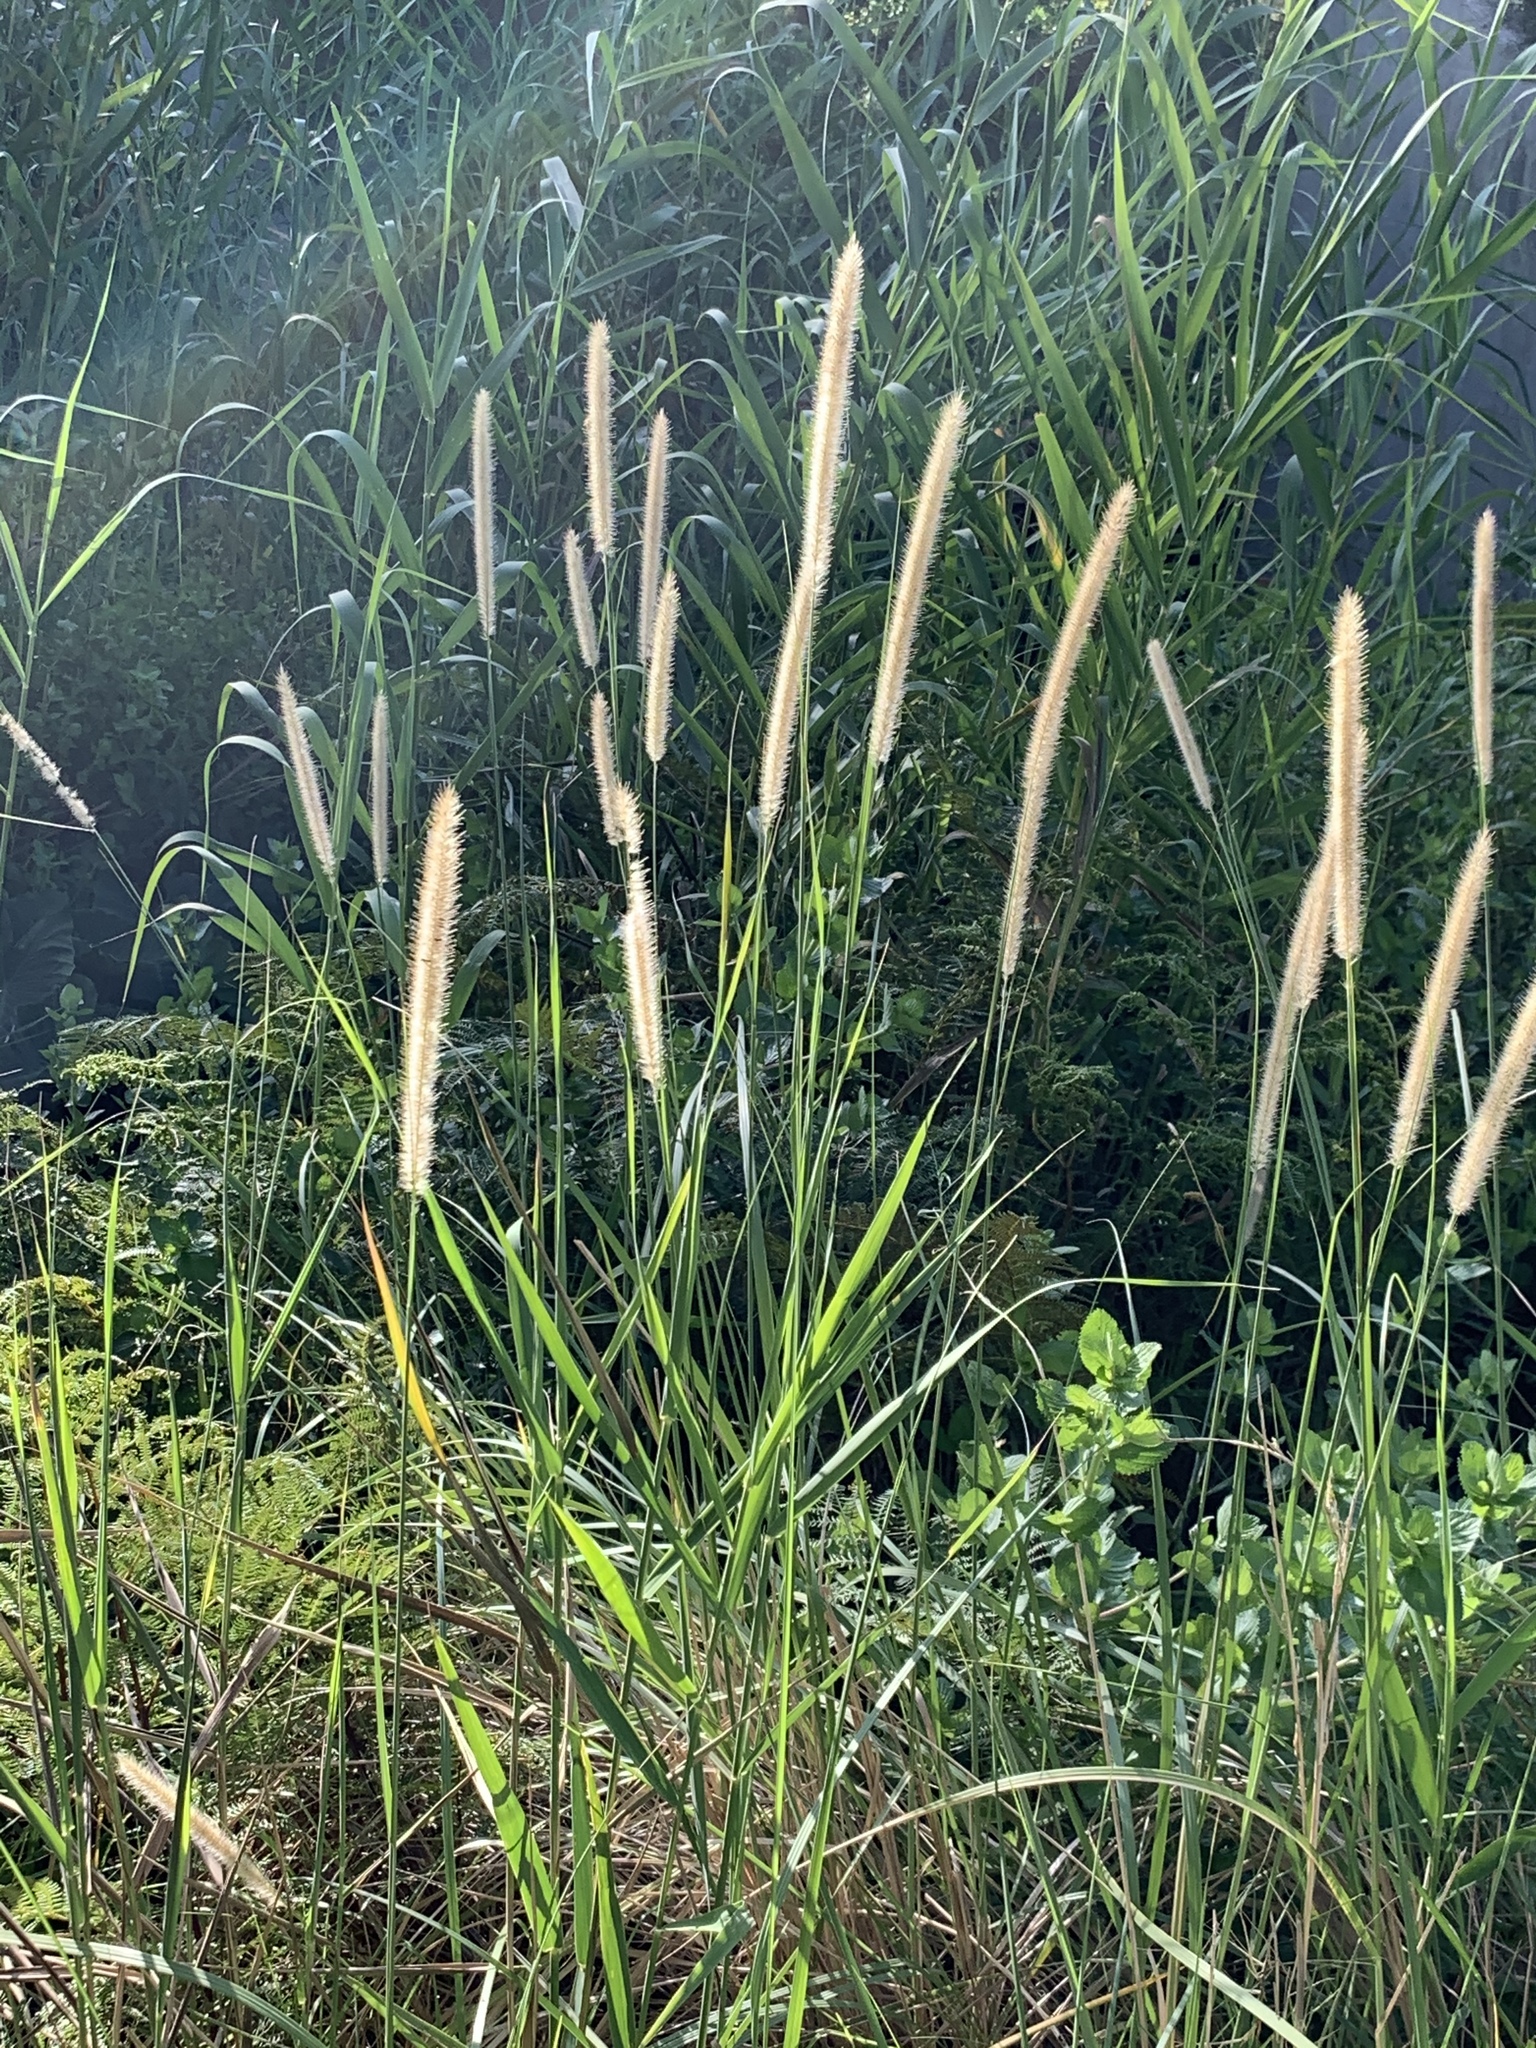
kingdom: Plantae
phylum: Tracheophyta
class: Liliopsida
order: Poales
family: Poaceae
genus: Cenchrus
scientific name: Cenchrus caudatus
